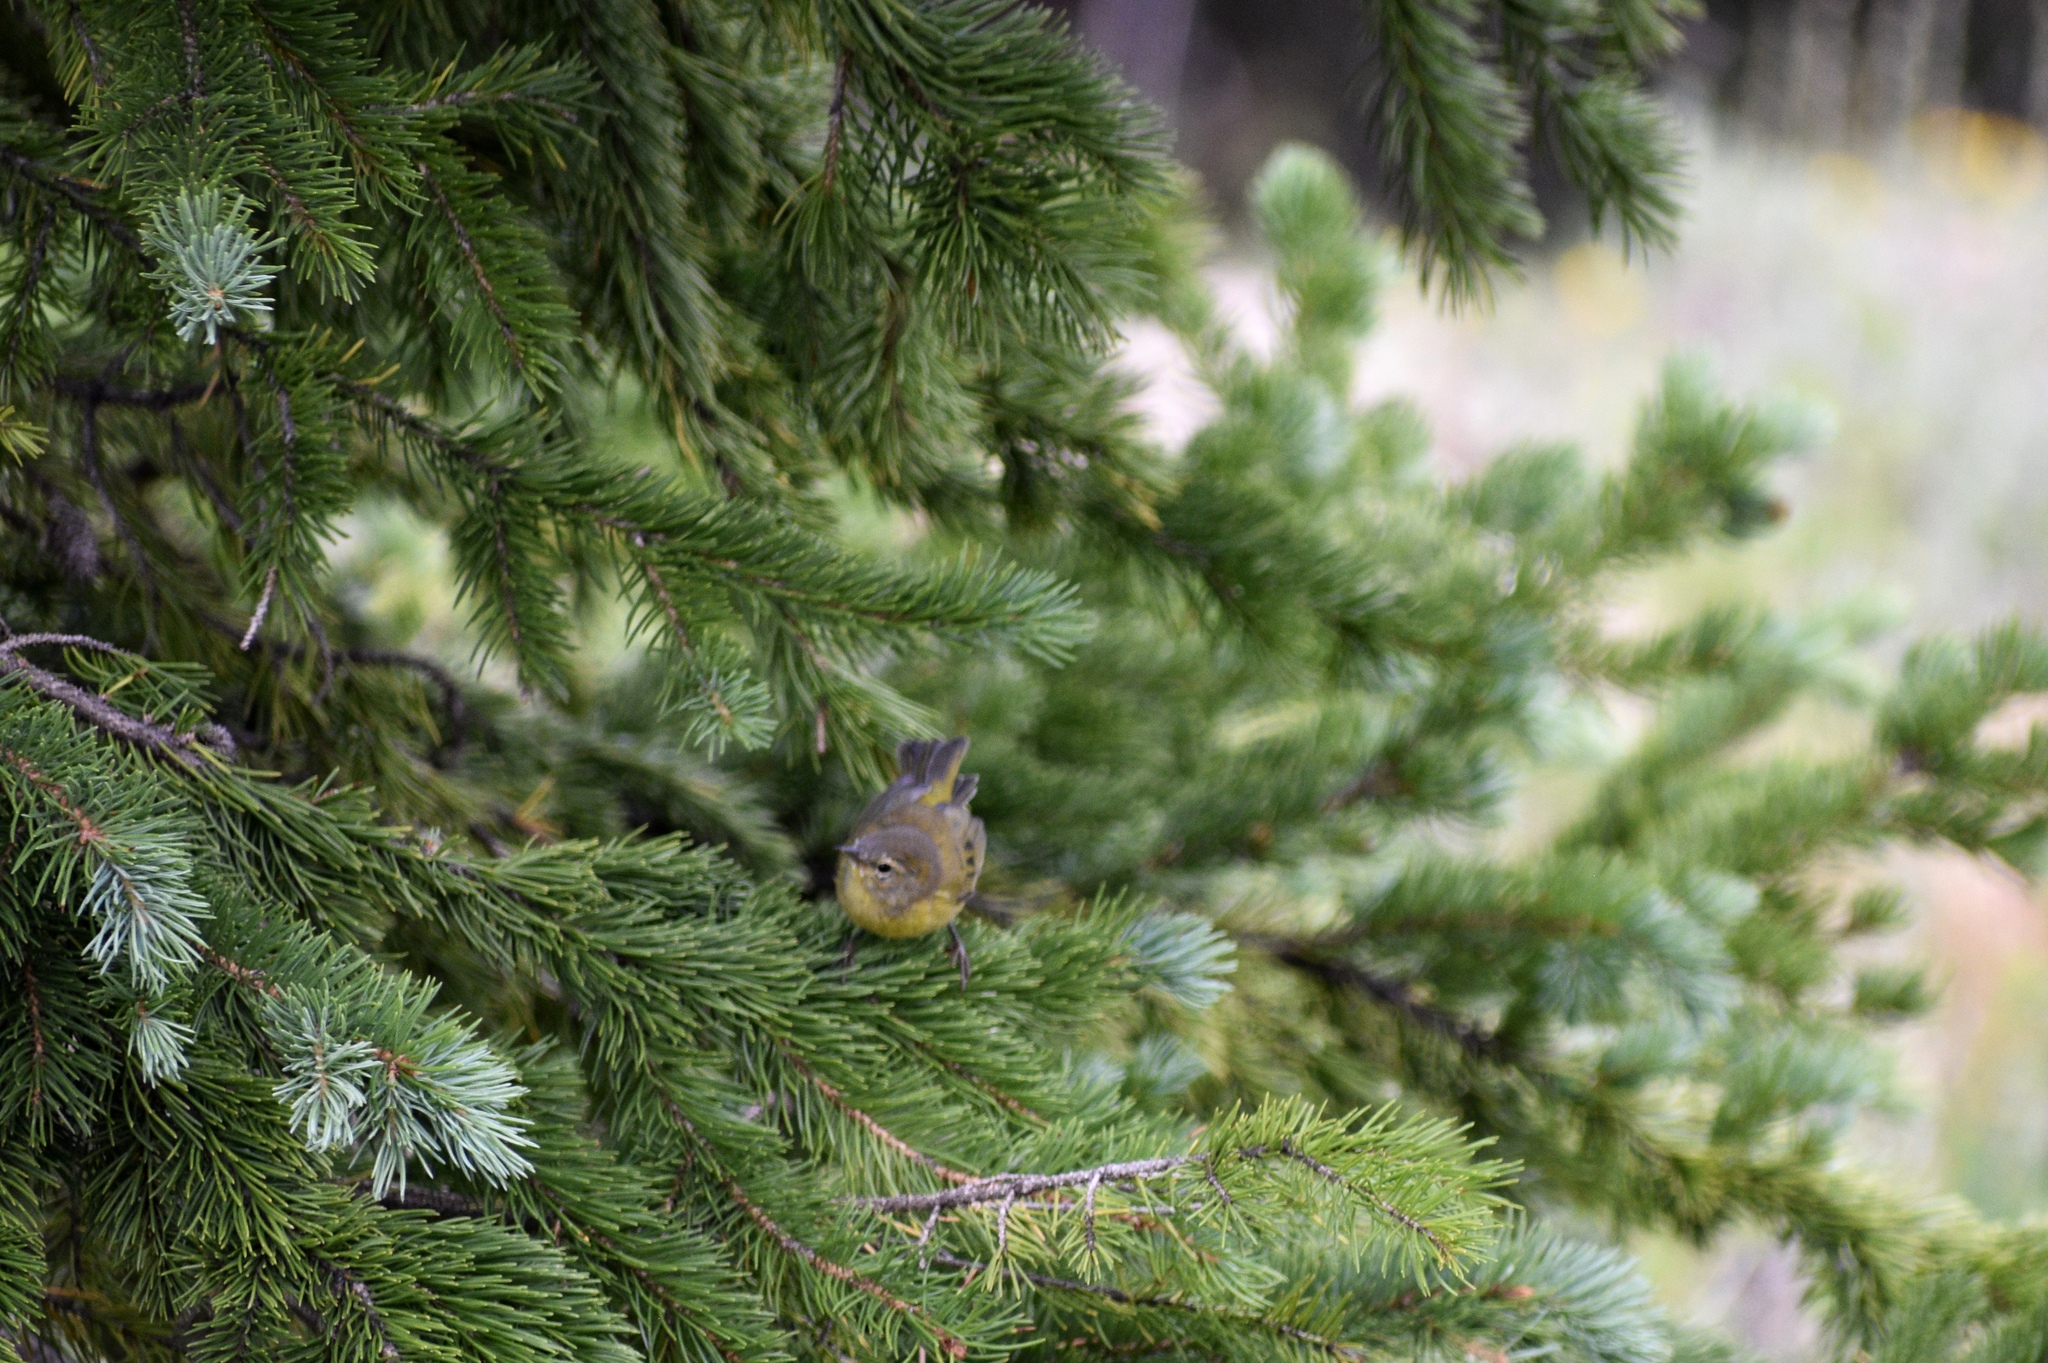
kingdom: Animalia
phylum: Chordata
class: Aves
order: Passeriformes
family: Parulidae
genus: Leiothlypis
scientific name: Leiothlypis celata
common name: Orange-crowned warbler
